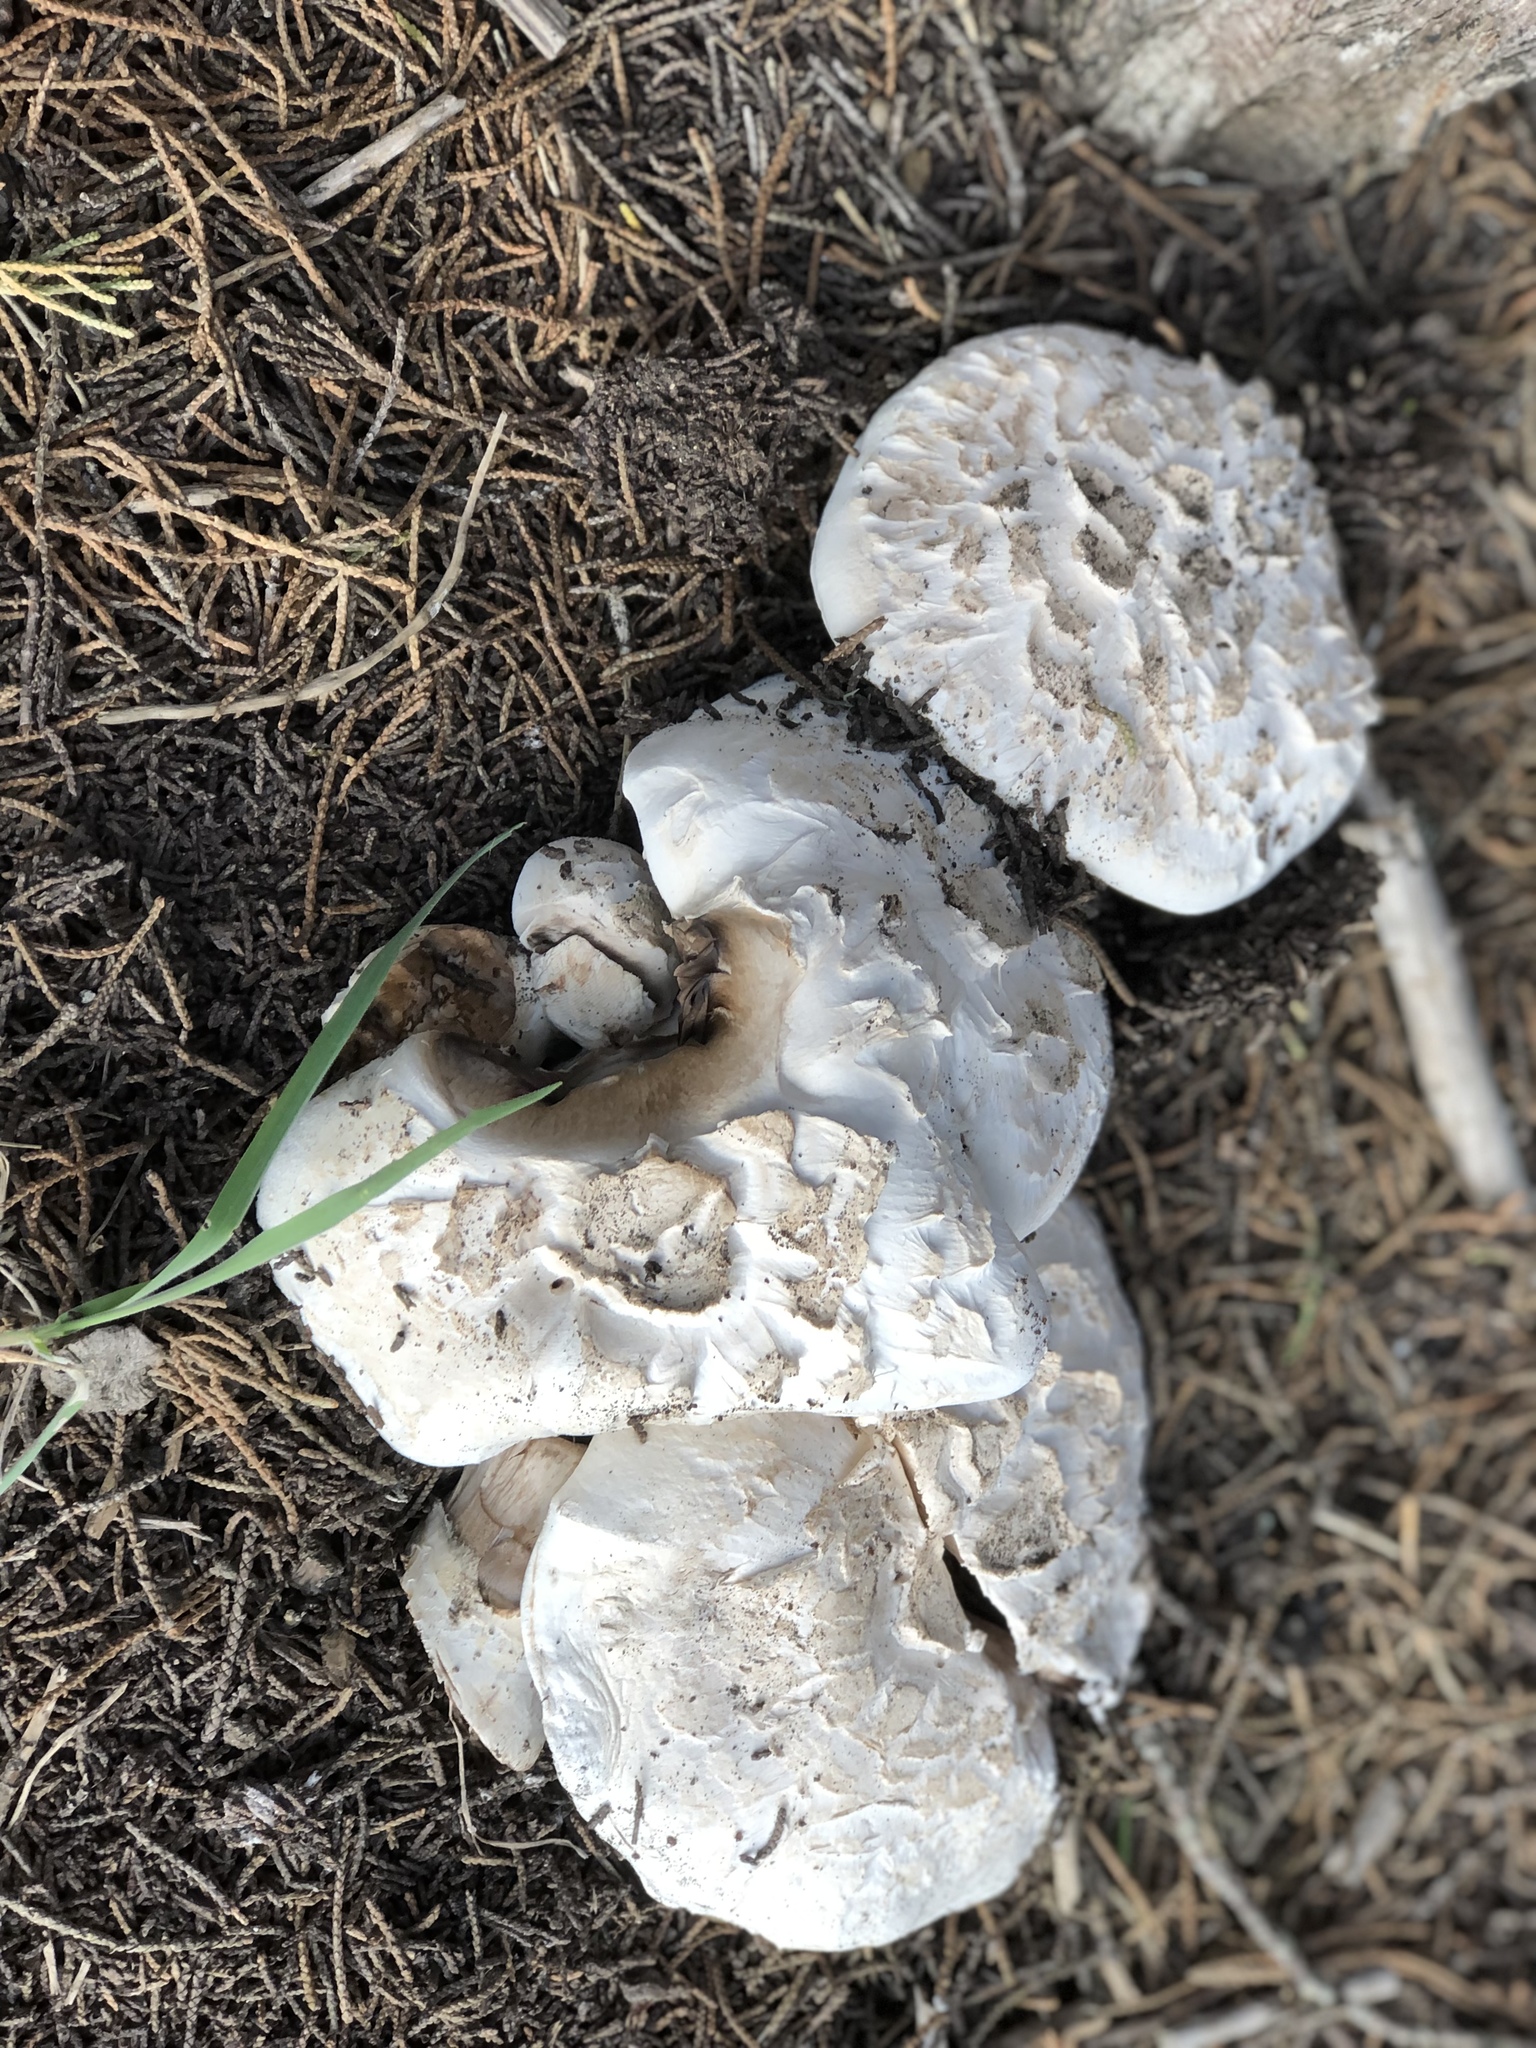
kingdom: Fungi
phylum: Basidiomycota
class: Agaricomycetes
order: Agaricales
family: Agaricaceae
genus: Agaricus
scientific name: Agaricus bernardii
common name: Salty mushroom
